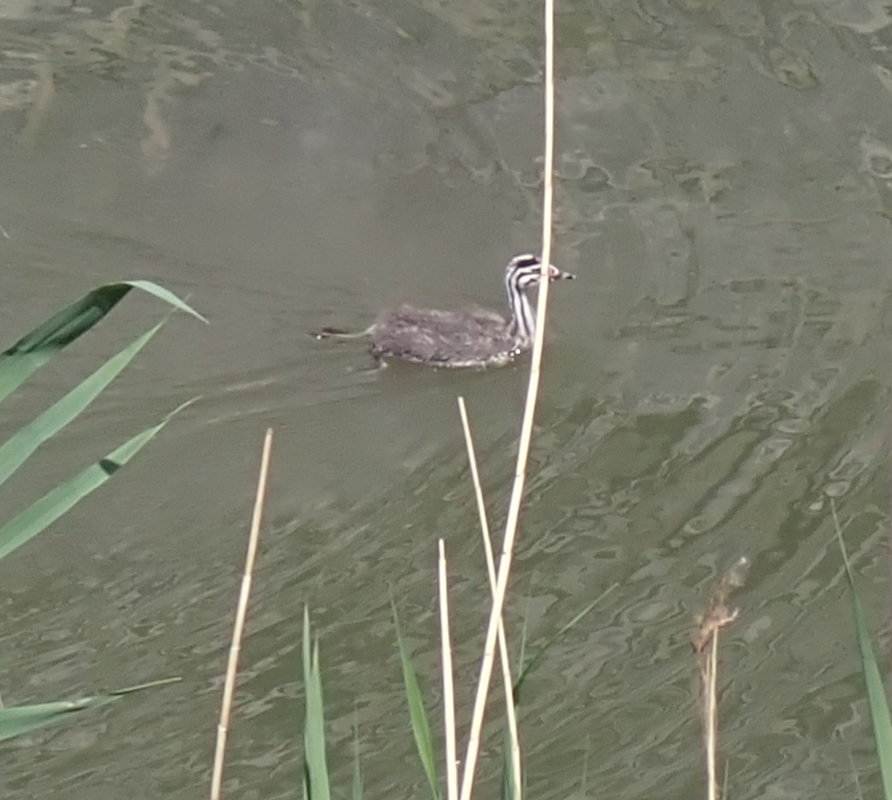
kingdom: Animalia
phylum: Chordata
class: Aves
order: Podicipediformes
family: Podicipedidae
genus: Podiceps
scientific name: Podiceps cristatus
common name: Great crested grebe
